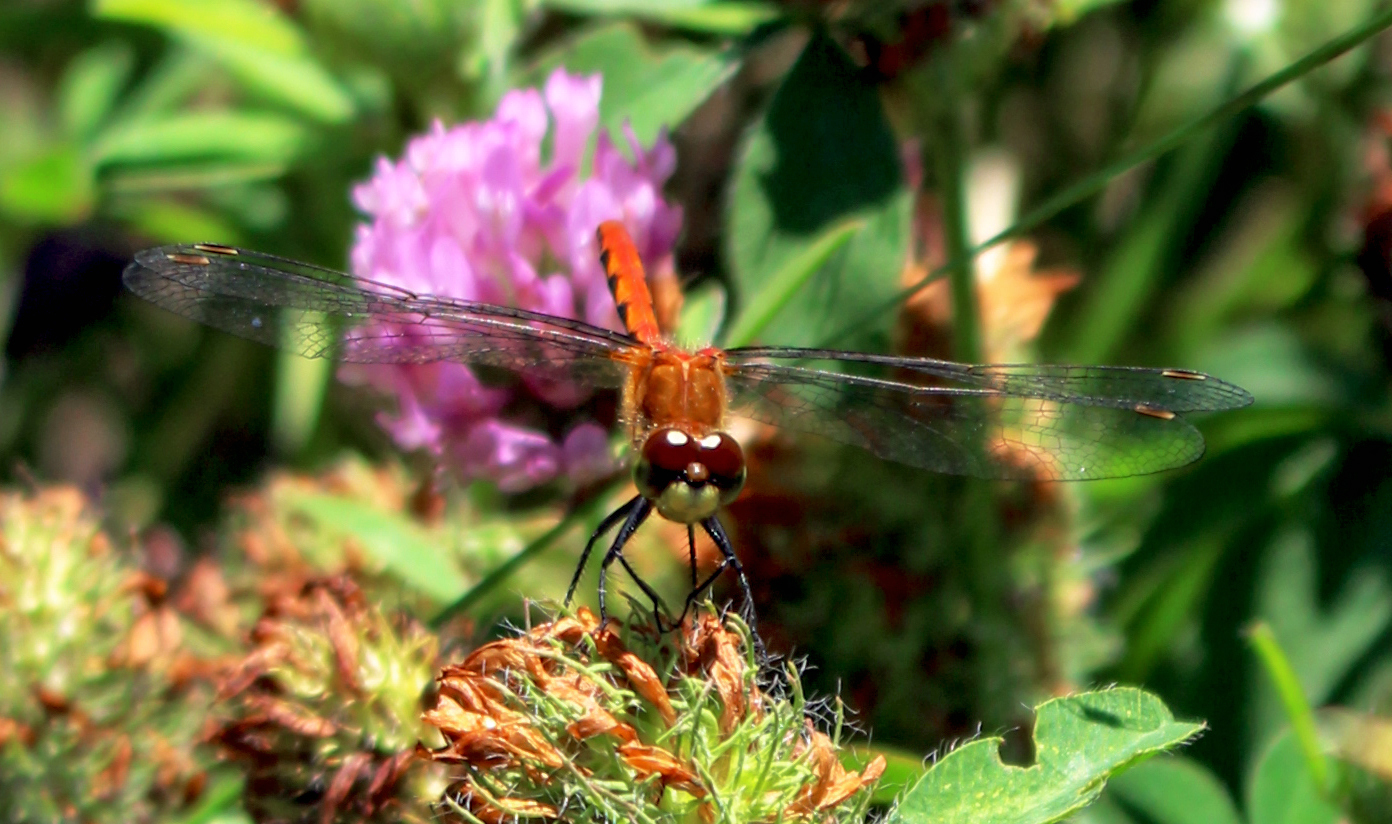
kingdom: Animalia
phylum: Arthropoda
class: Insecta
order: Odonata
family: Libellulidae
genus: Sympetrum
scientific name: Sympetrum obtrusum
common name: White-faced meadowhawk
